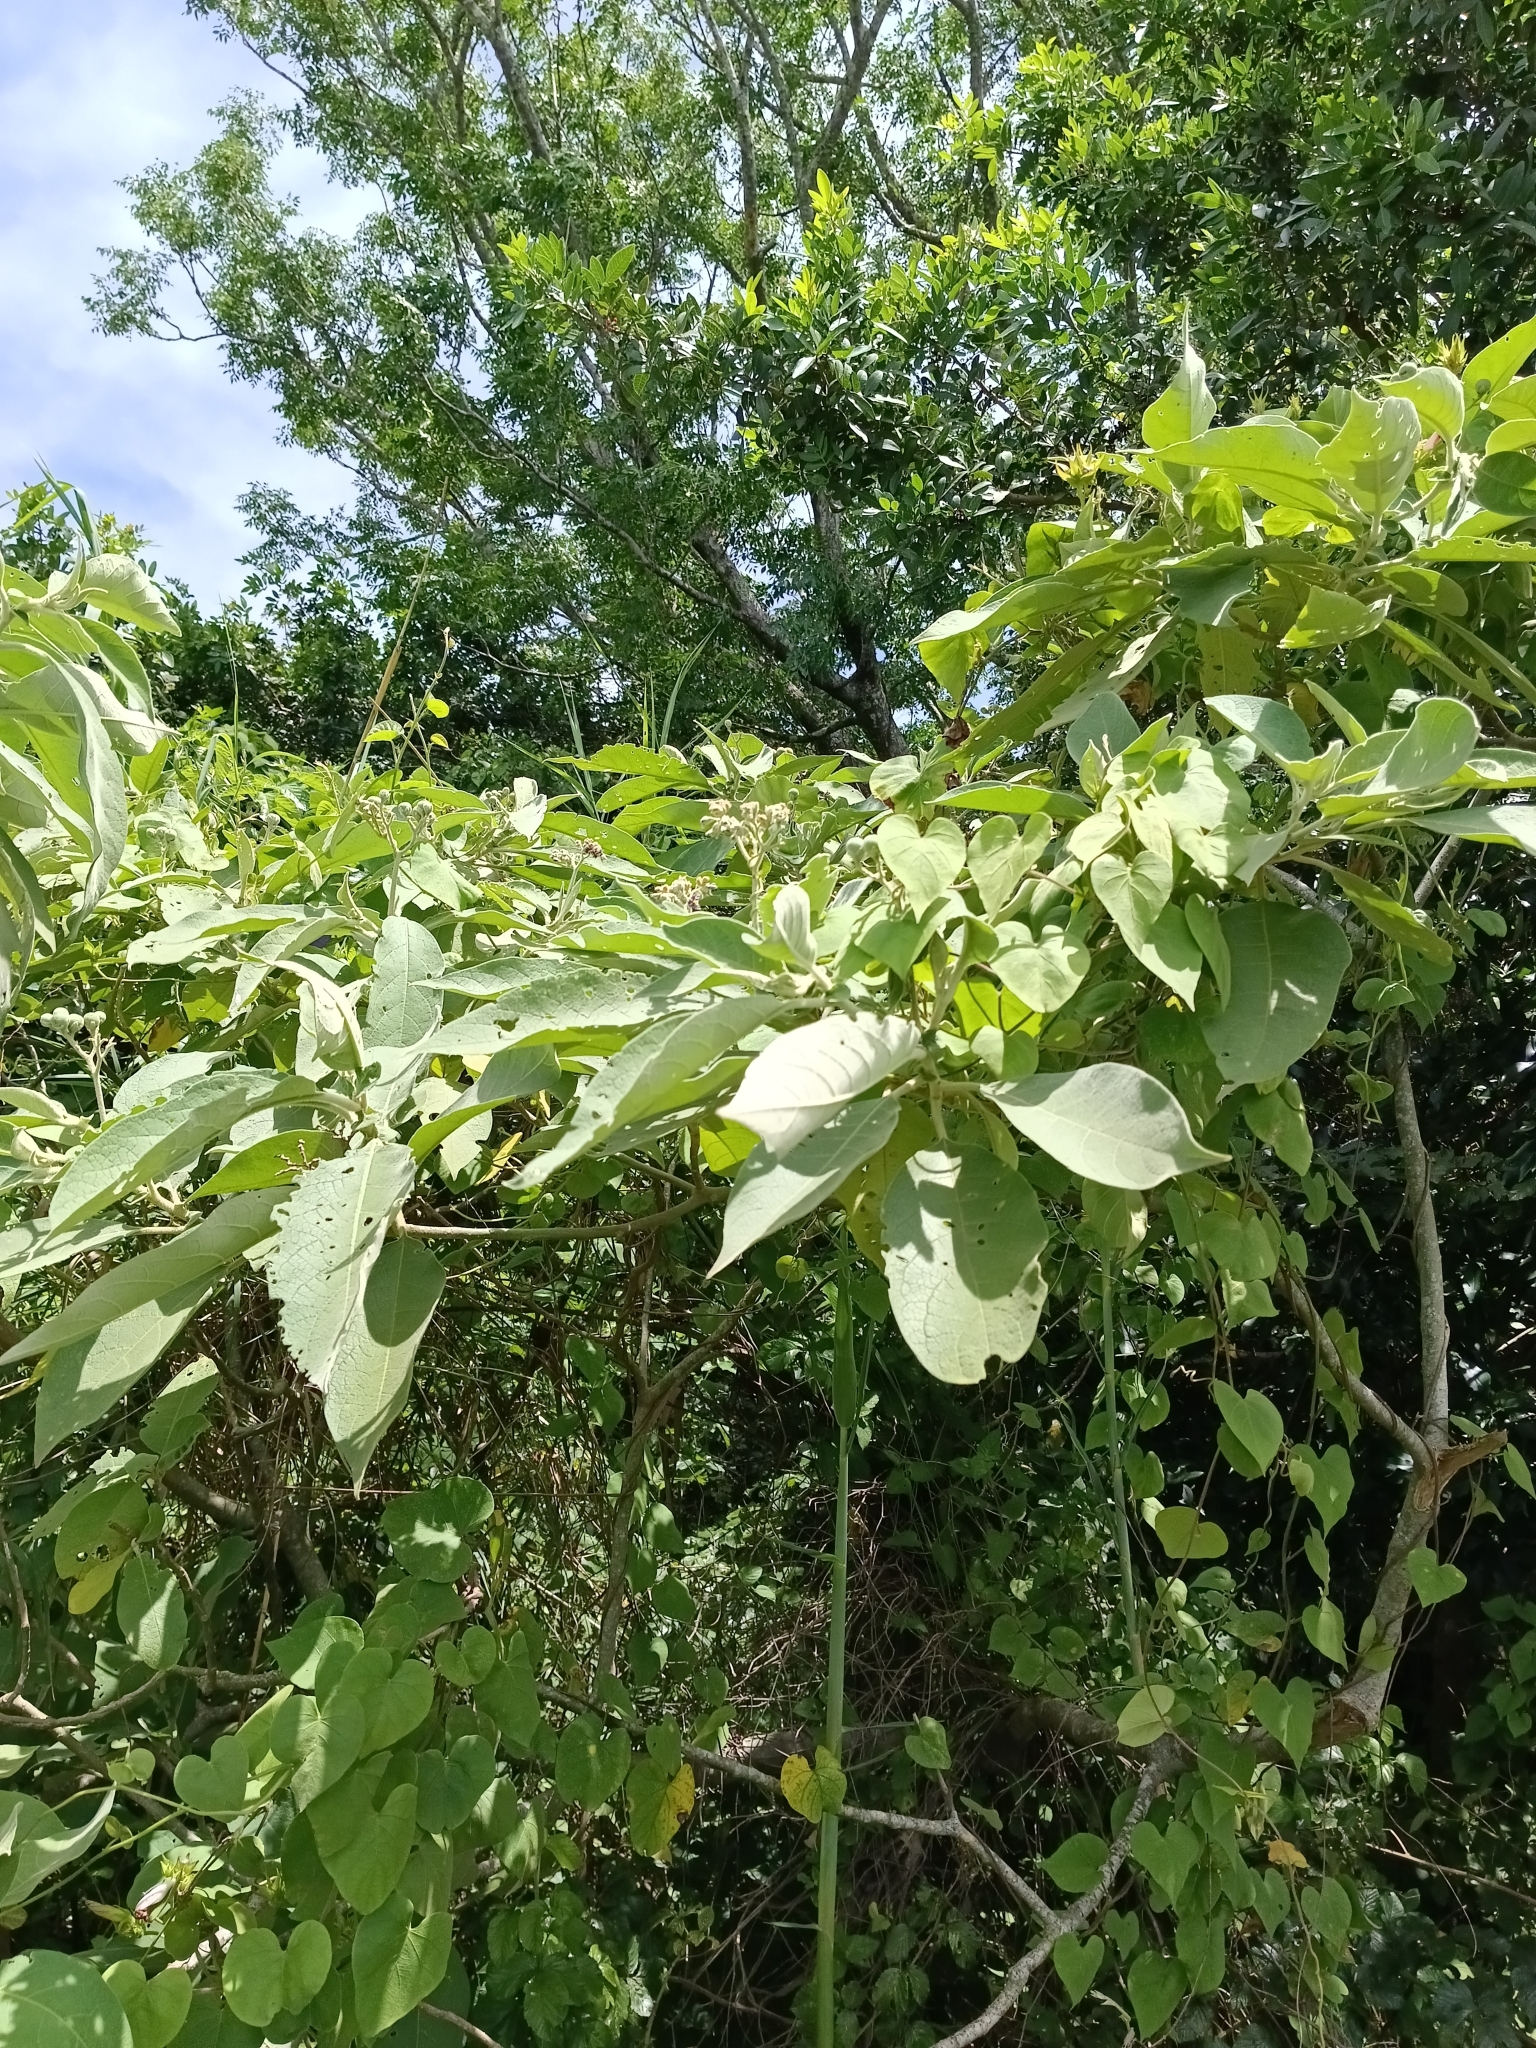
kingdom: Plantae
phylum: Tracheophyta
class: Magnoliopsida
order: Solanales
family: Solanaceae
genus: Solanum
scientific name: Solanum mauritianum
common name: Earleaf nightshade
